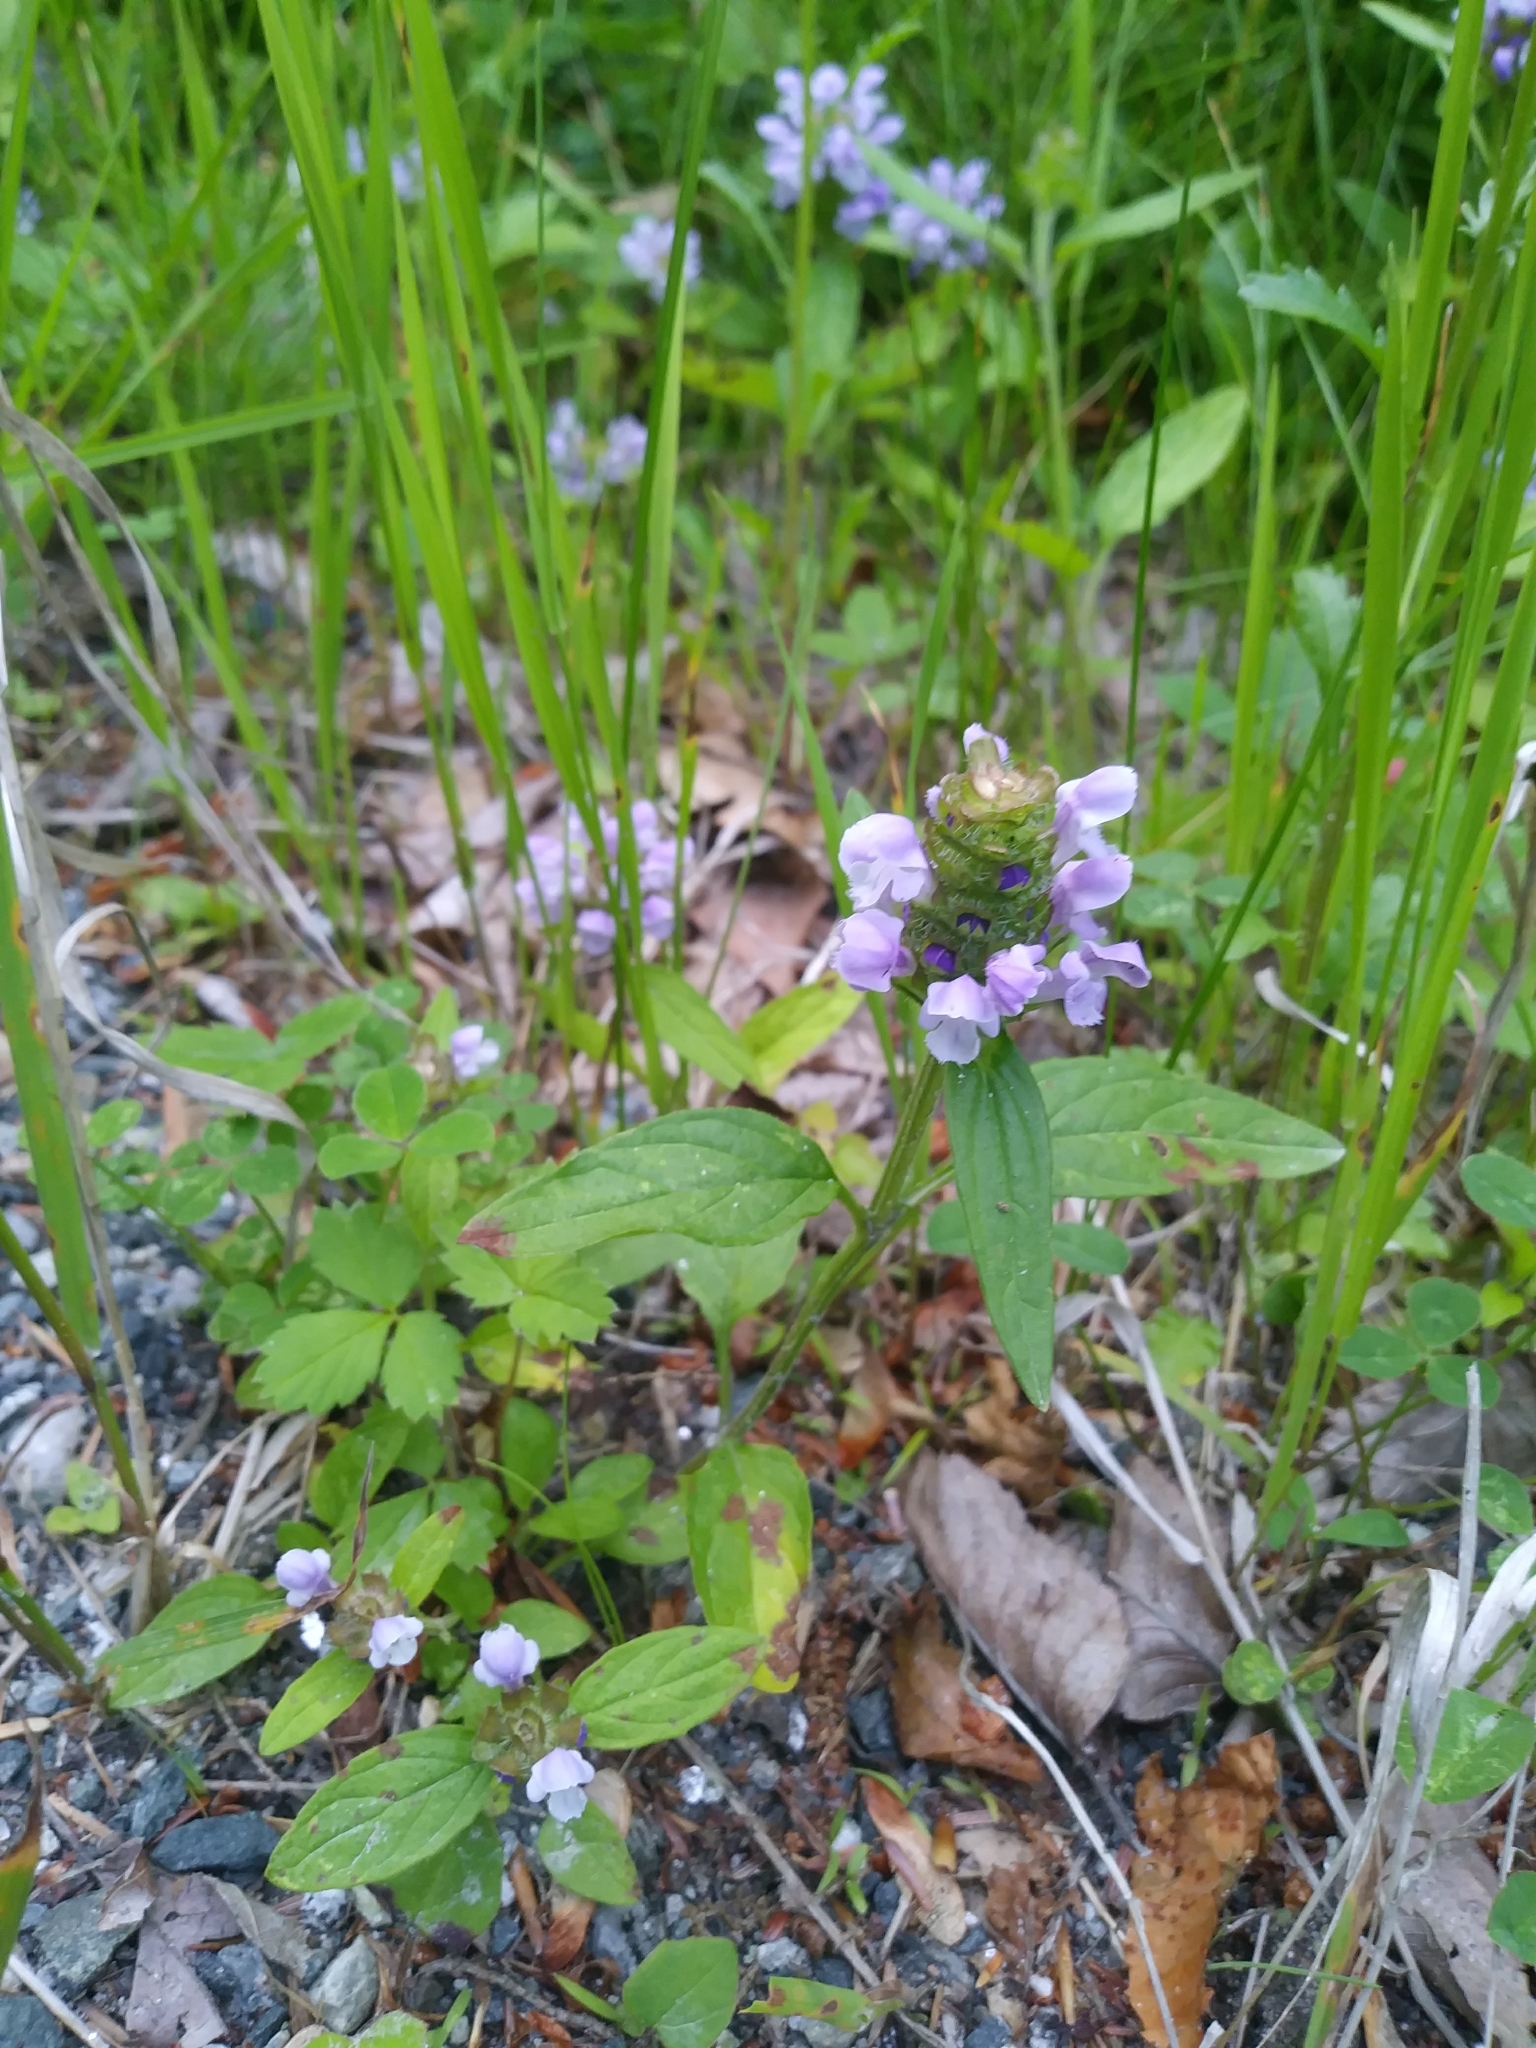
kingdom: Plantae
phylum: Tracheophyta
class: Magnoliopsida
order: Lamiales
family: Lamiaceae
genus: Prunella
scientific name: Prunella vulgaris
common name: Heal-all
